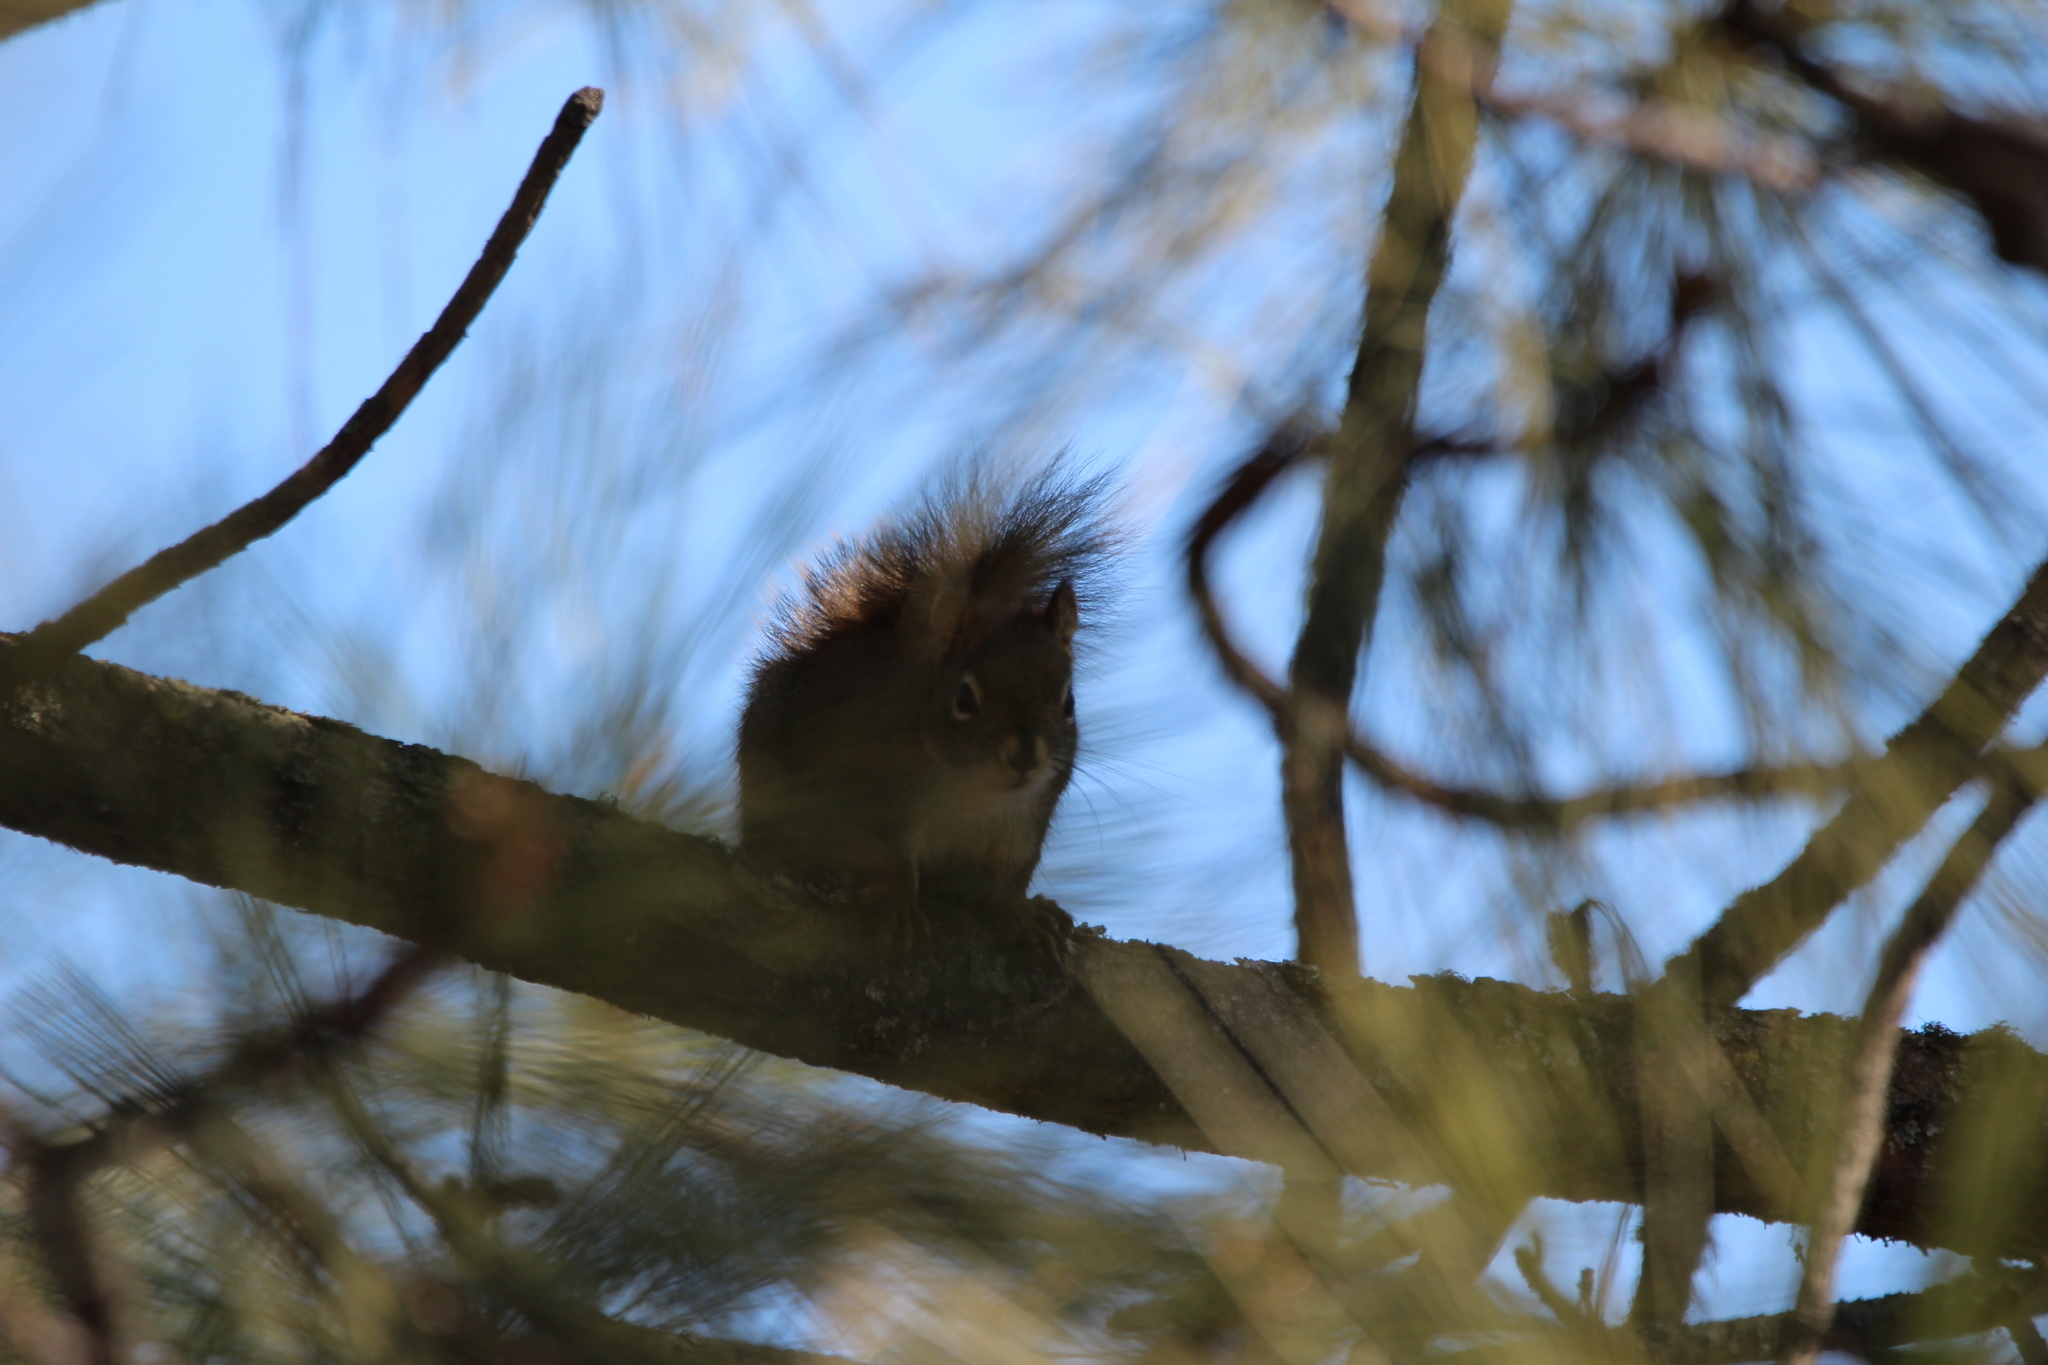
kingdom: Animalia
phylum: Chordata
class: Mammalia
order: Rodentia
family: Sciuridae
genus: Tamiasciurus
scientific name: Tamiasciurus hudsonicus
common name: Red squirrel
